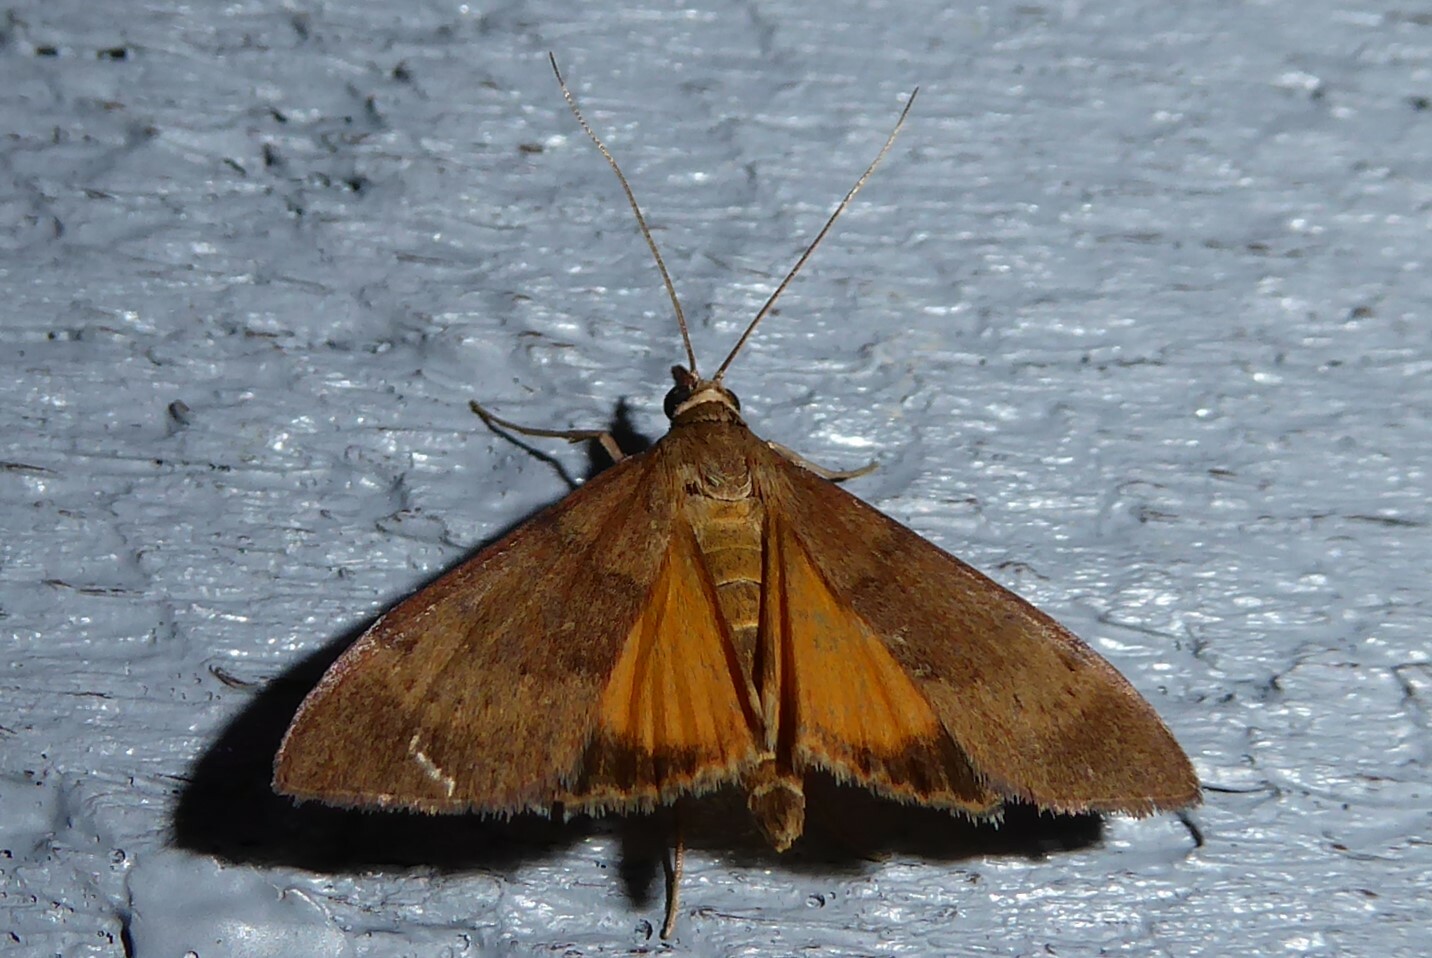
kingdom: Animalia
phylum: Arthropoda
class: Insecta
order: Lepidoptera
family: Crambidae
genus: Uresiphita
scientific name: Uresiphita
